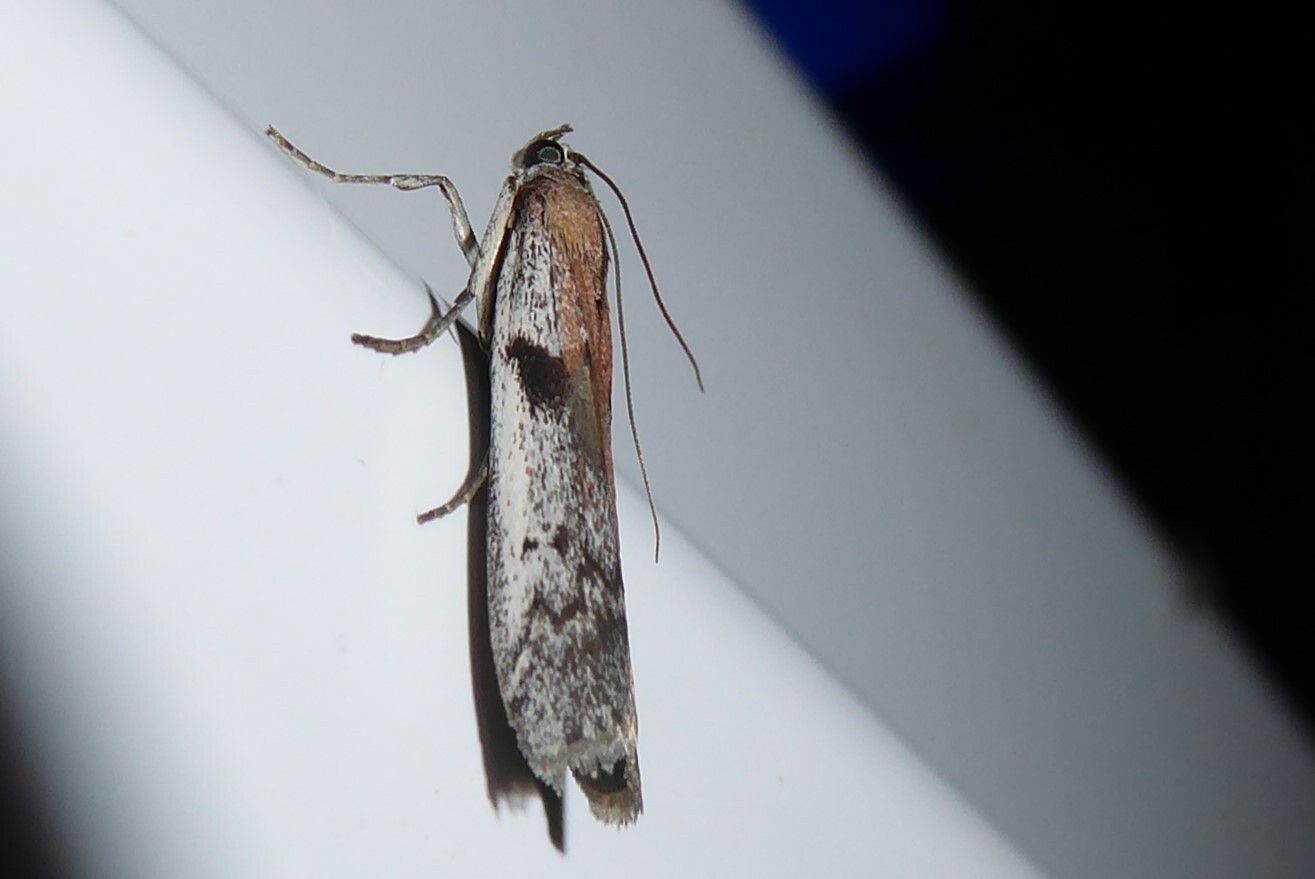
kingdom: Animalia
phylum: Arthropoda
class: Insecta
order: Lepidoptera
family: Pyralidae
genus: Patagoniodes
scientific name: Patagoniodes farinaria
